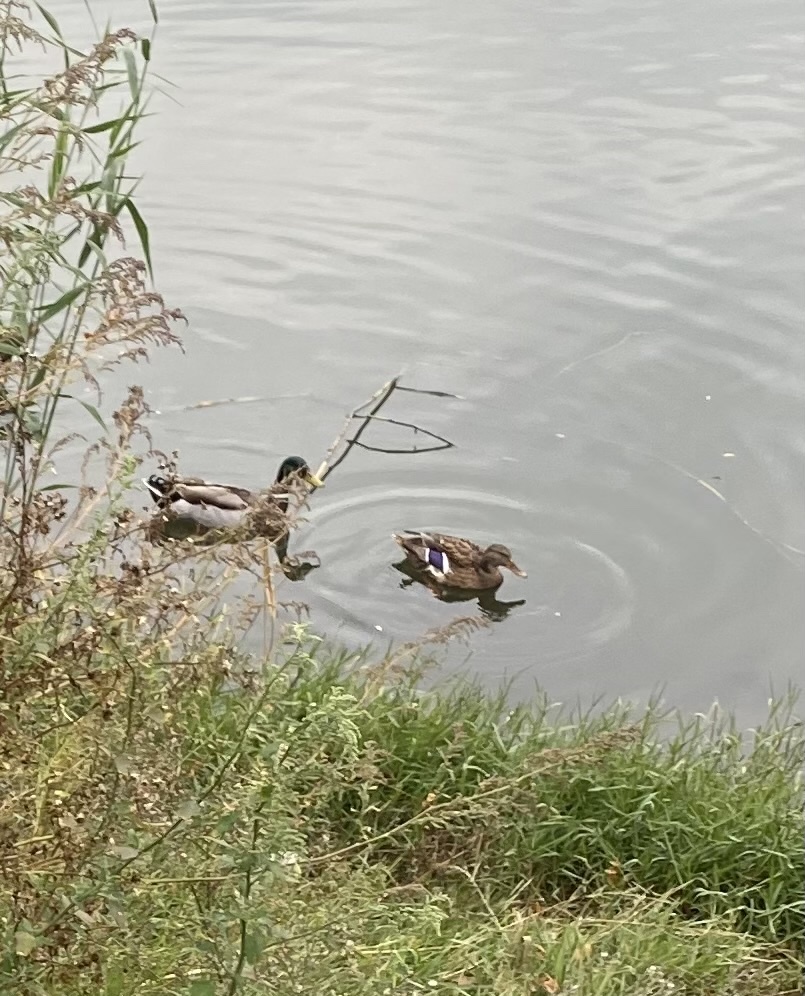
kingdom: Animalia
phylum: Chordata
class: Aves
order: Anseriformes
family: Anatidae
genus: Anas
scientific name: Anas platyrhynchos
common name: Mallard
